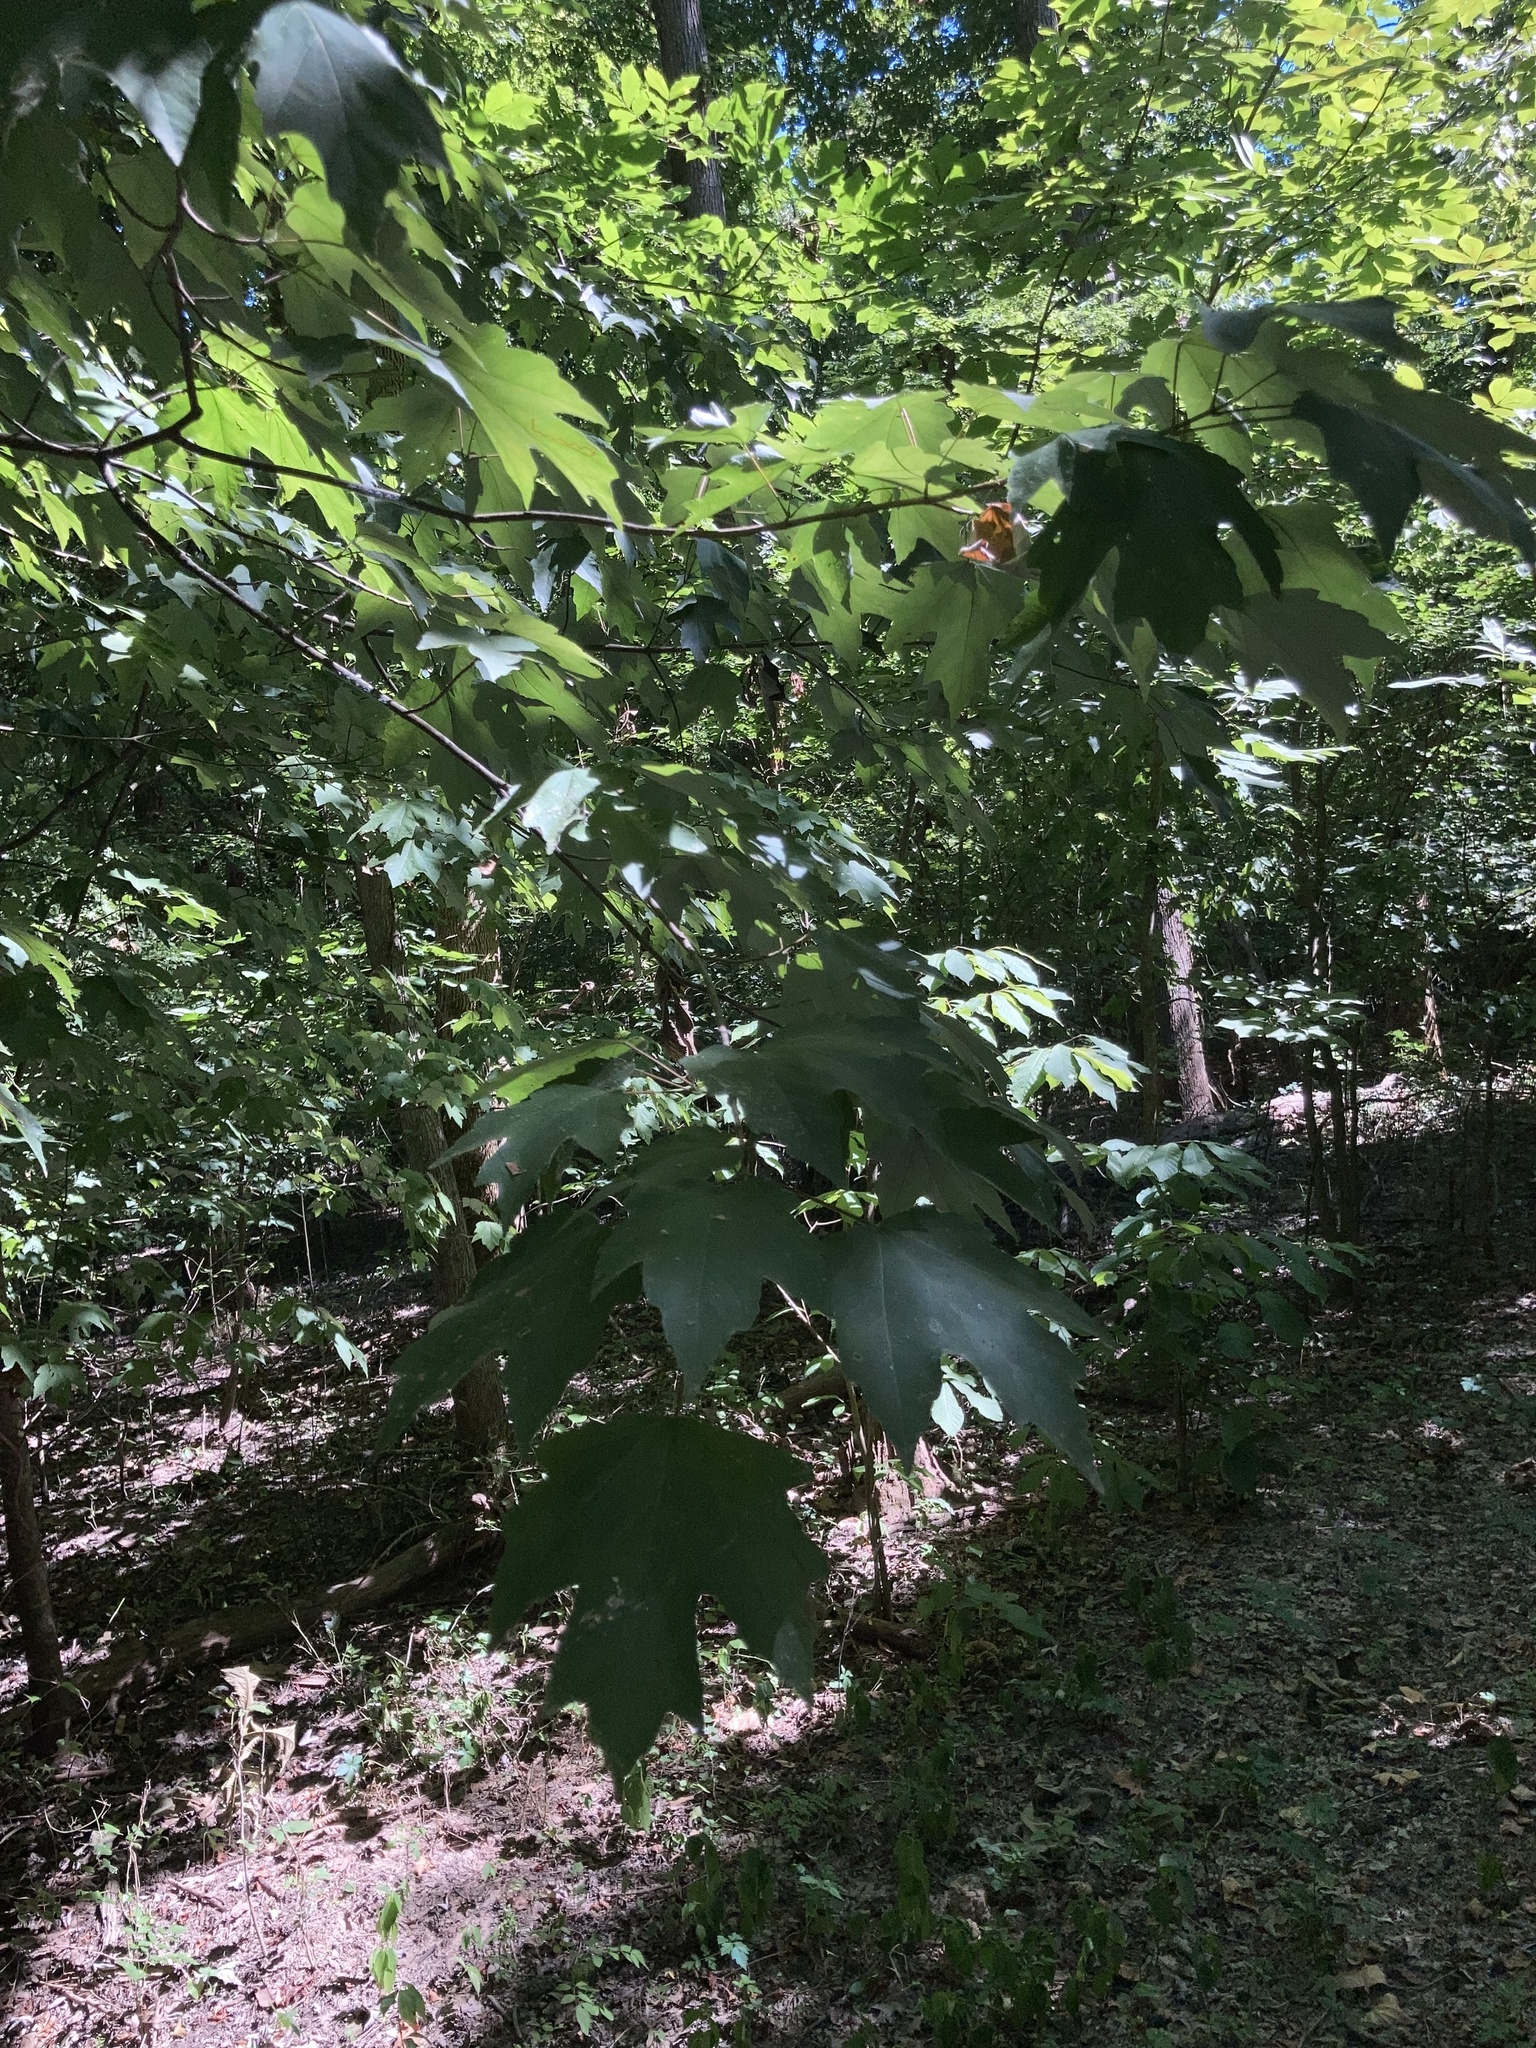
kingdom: Plantae
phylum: Tracheophyta
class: Magnoliopsida
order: Sapindales
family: Sapindaceae
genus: Acer
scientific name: Acer floridanum
